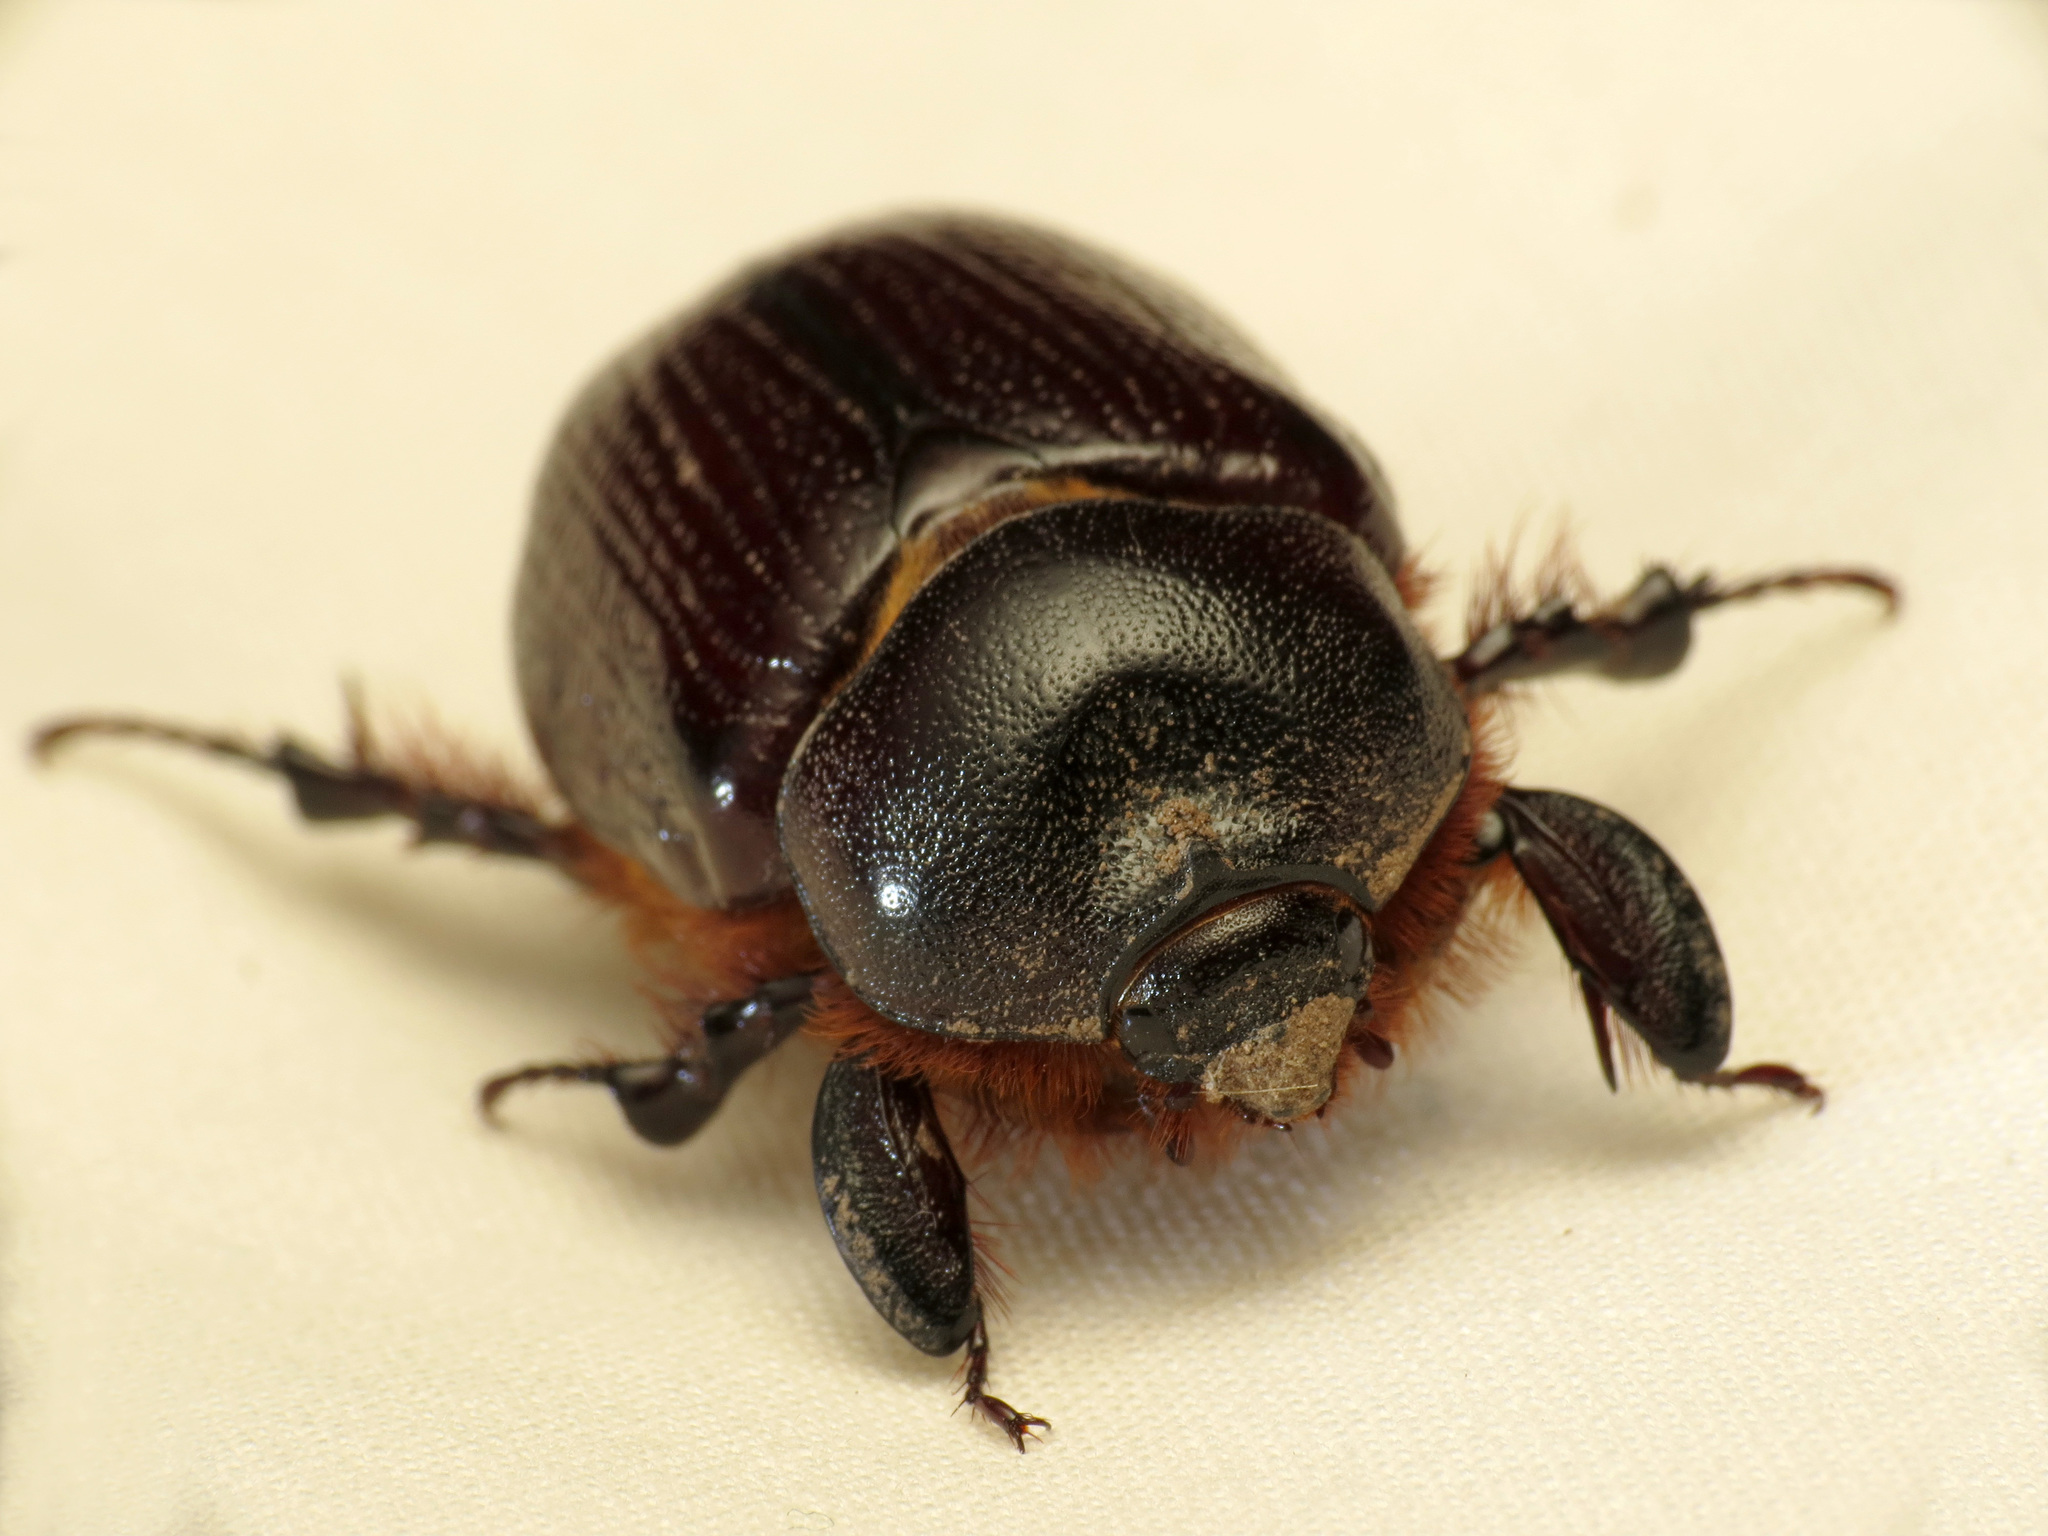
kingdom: Animalia
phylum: Arthropoda
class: Insecta
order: Coleoptera
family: Scarabaeidae
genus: Orizabus
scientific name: Orizabus clunalis
